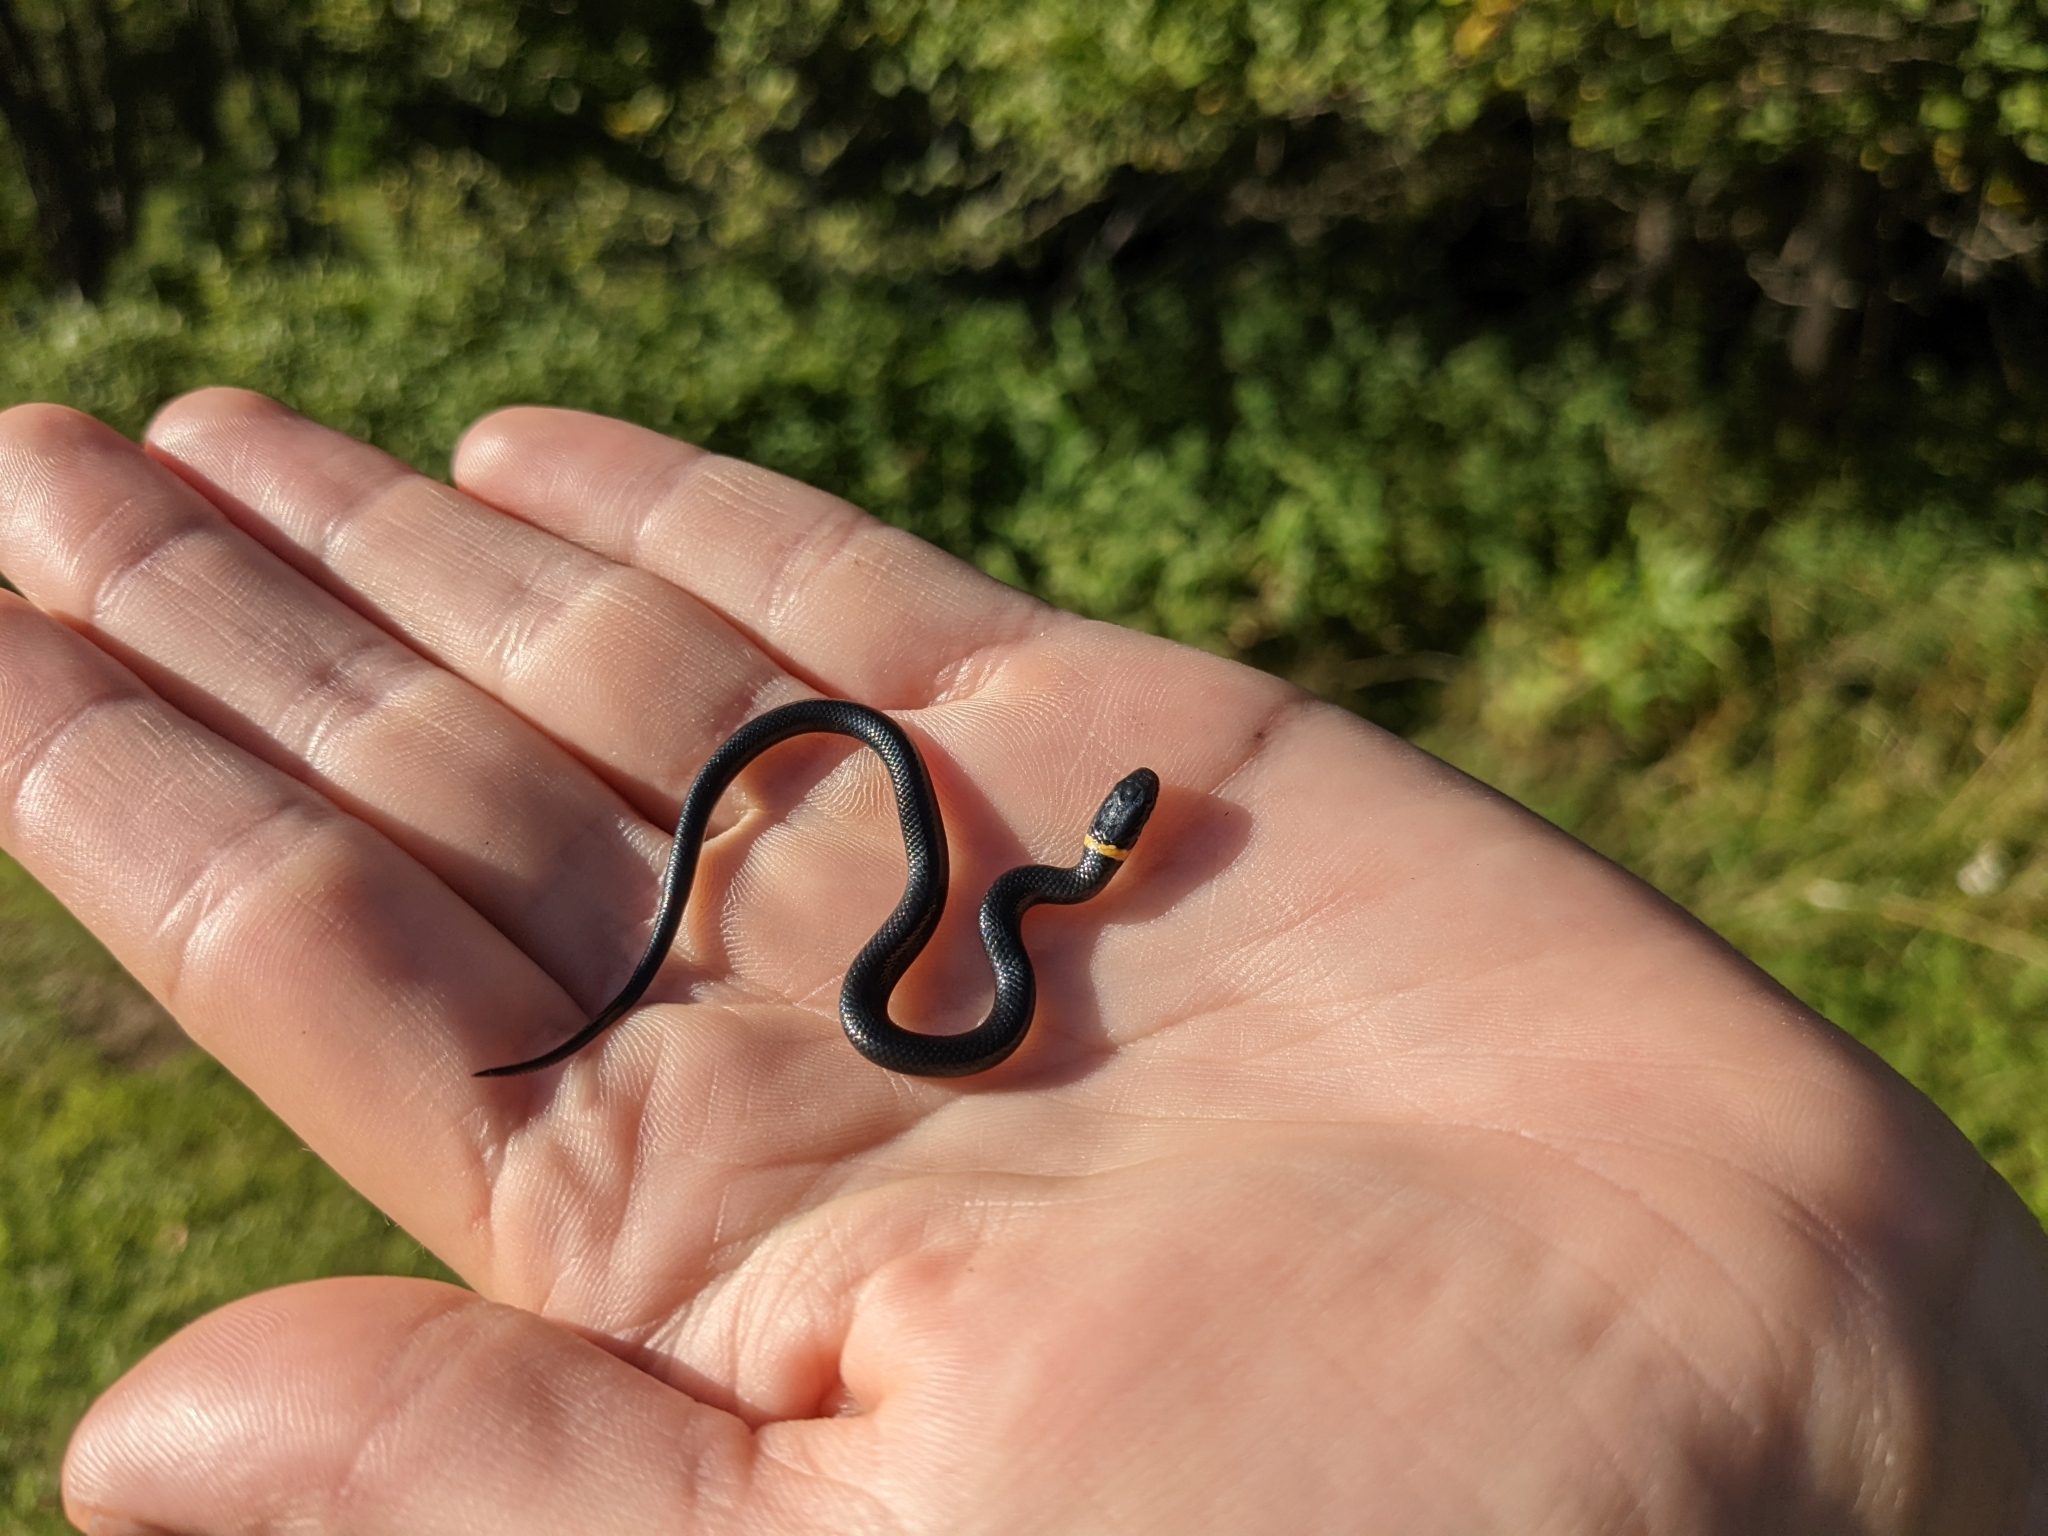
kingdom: Animalia
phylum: Chordata
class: Squamata
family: Colubridae
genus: Diadophis
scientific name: Diadophis punctatus
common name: Ringneck snake
